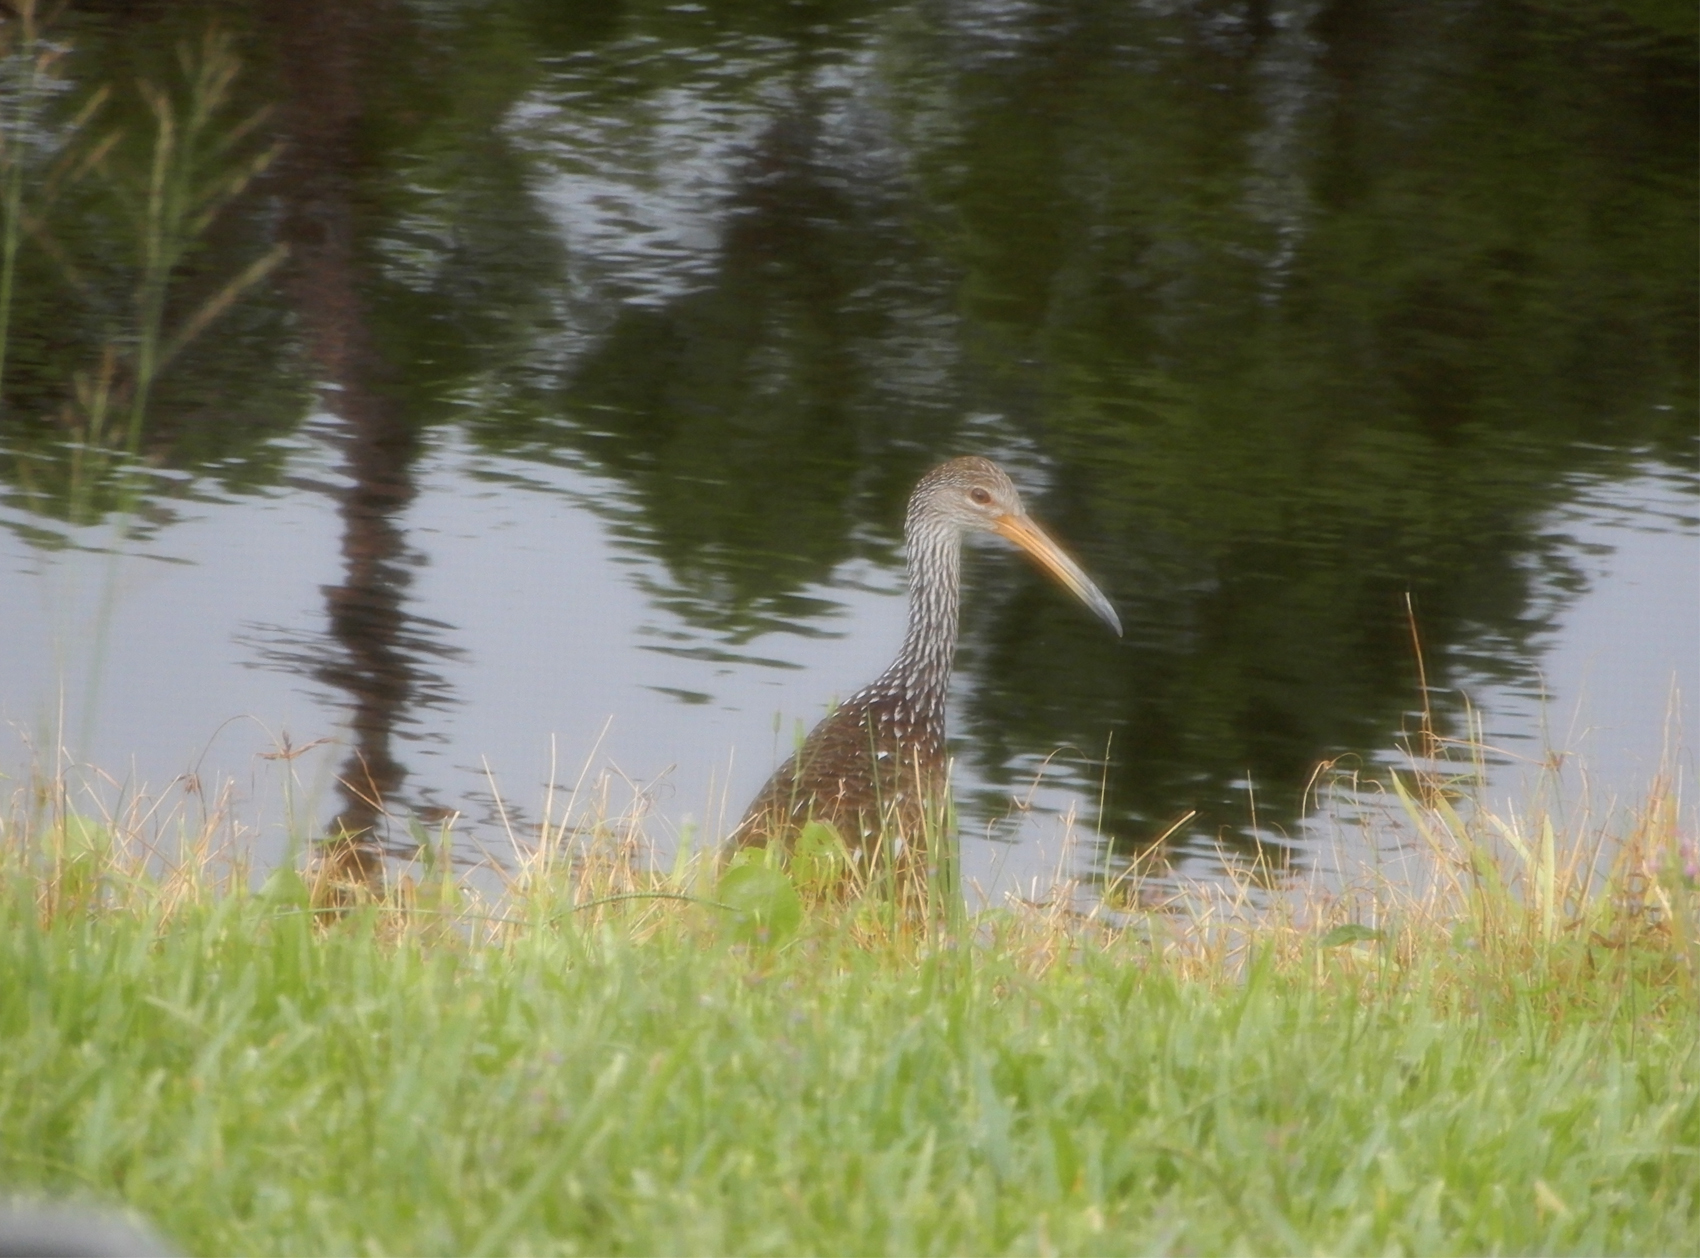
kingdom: Animalia
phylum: Chordata
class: Aves
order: Gruiformes
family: Aramidae
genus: Aramus
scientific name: Aramus guarauna
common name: Limpkin
